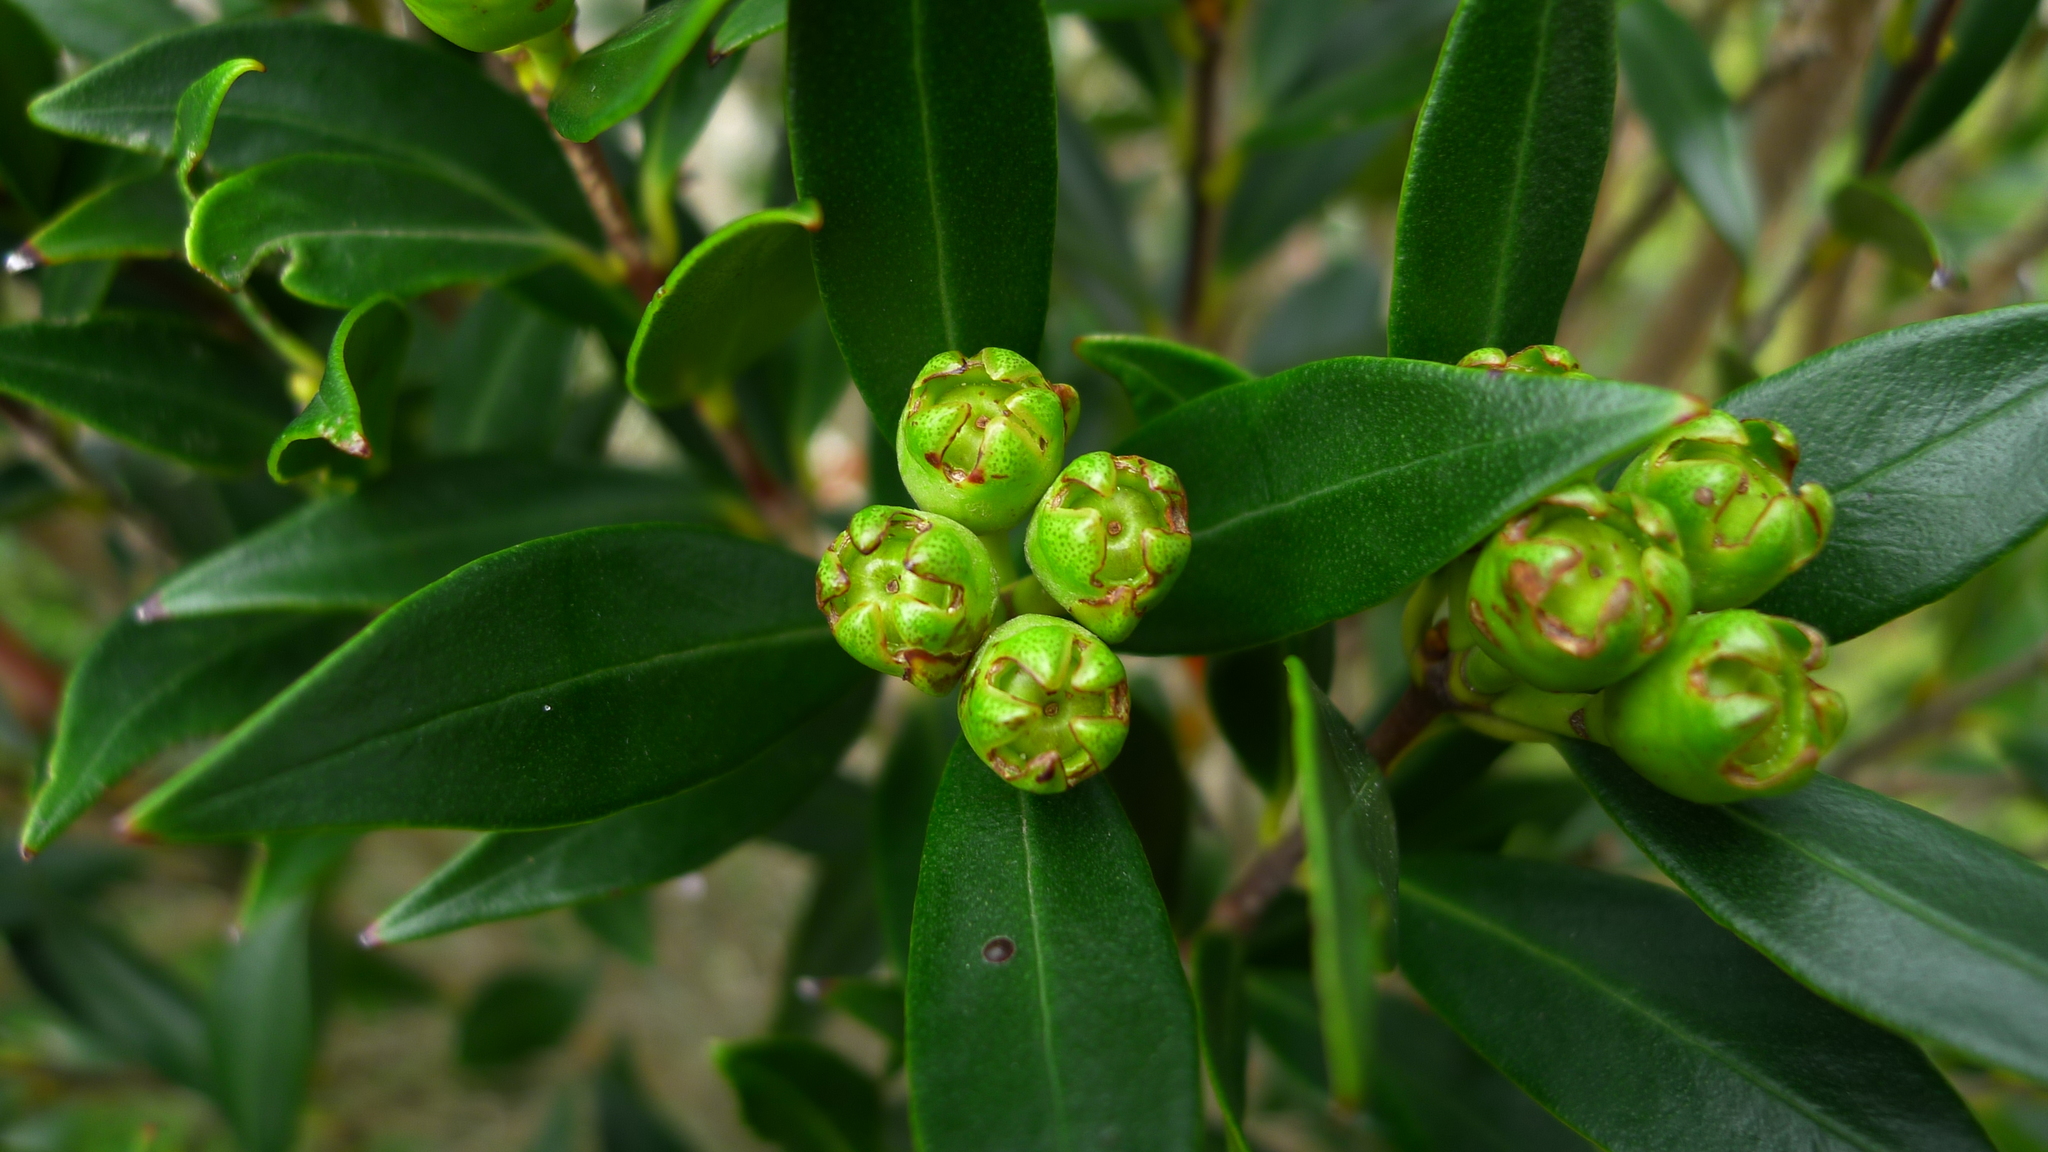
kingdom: Plantae
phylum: Tracheophyta
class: Magnoliopsida
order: Myrtales
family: Myrtaceae
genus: Metrosideros
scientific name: Metrosideros umbellata
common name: Southern rata
